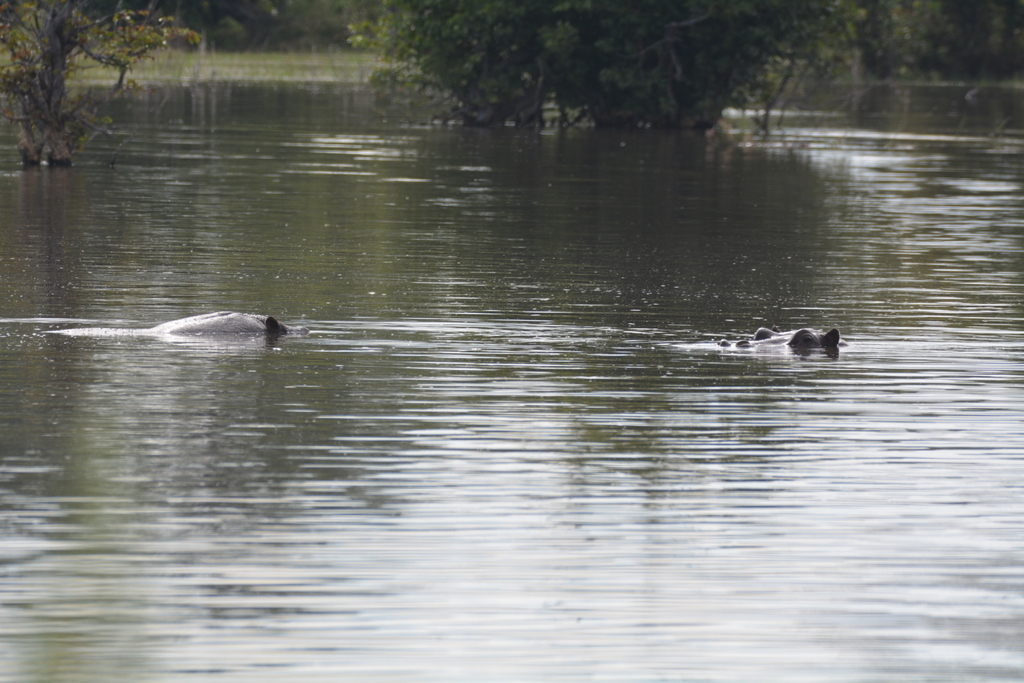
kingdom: Animalia
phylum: Chordata
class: Mammalia
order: Artiodactyla
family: Hippopotamidae
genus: Hippopotamus
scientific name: Hippopotamus amphibius
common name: Common hippopotamus
